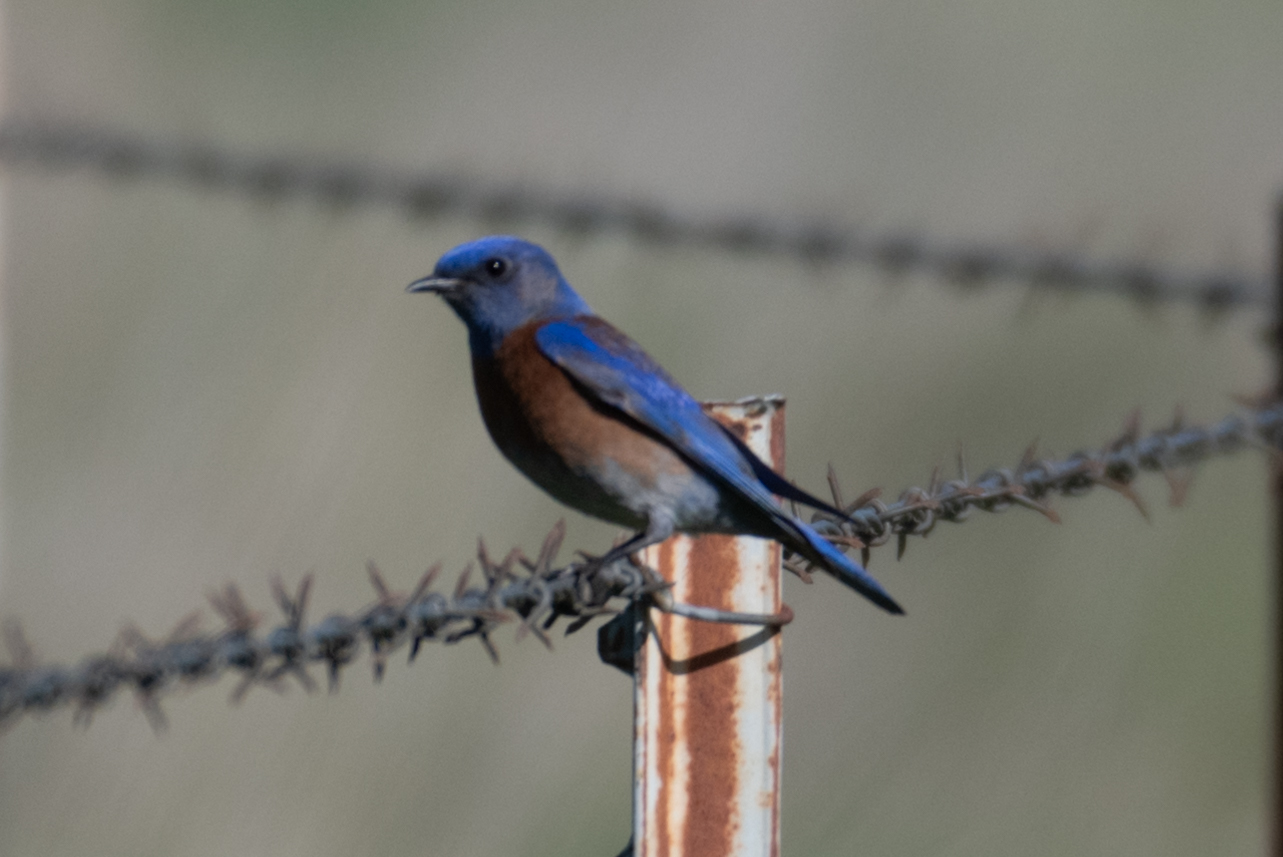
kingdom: Animalia
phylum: Chordata
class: Aves
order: Passeriformes
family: Turdidae
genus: Sialia
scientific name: Sialia mexicana
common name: Western bluebird
